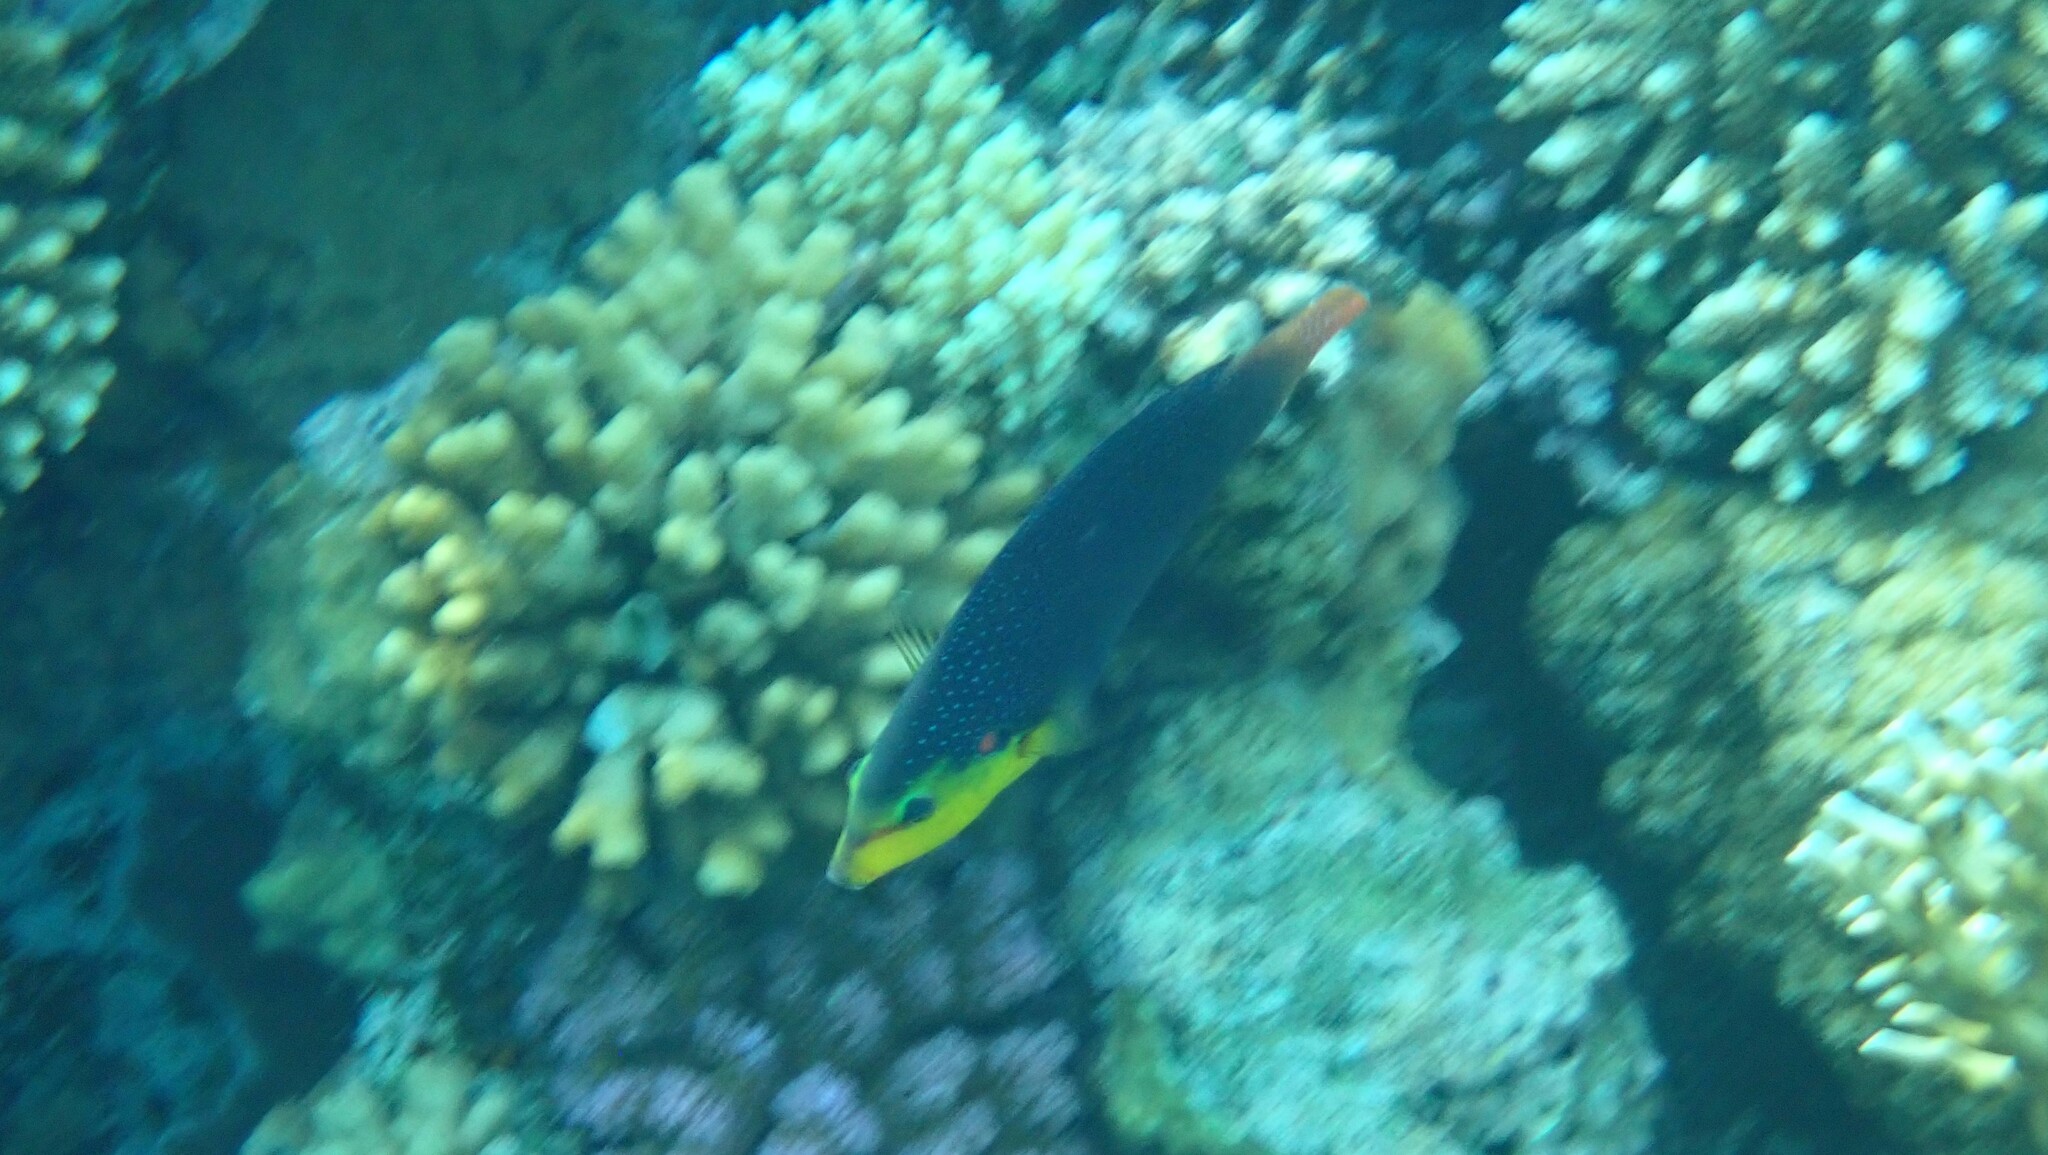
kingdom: Animalia
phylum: Chordata
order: Perciformes
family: Labridae
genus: Anampses
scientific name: Anampses twistii
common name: Yellowbreasted wrasse
